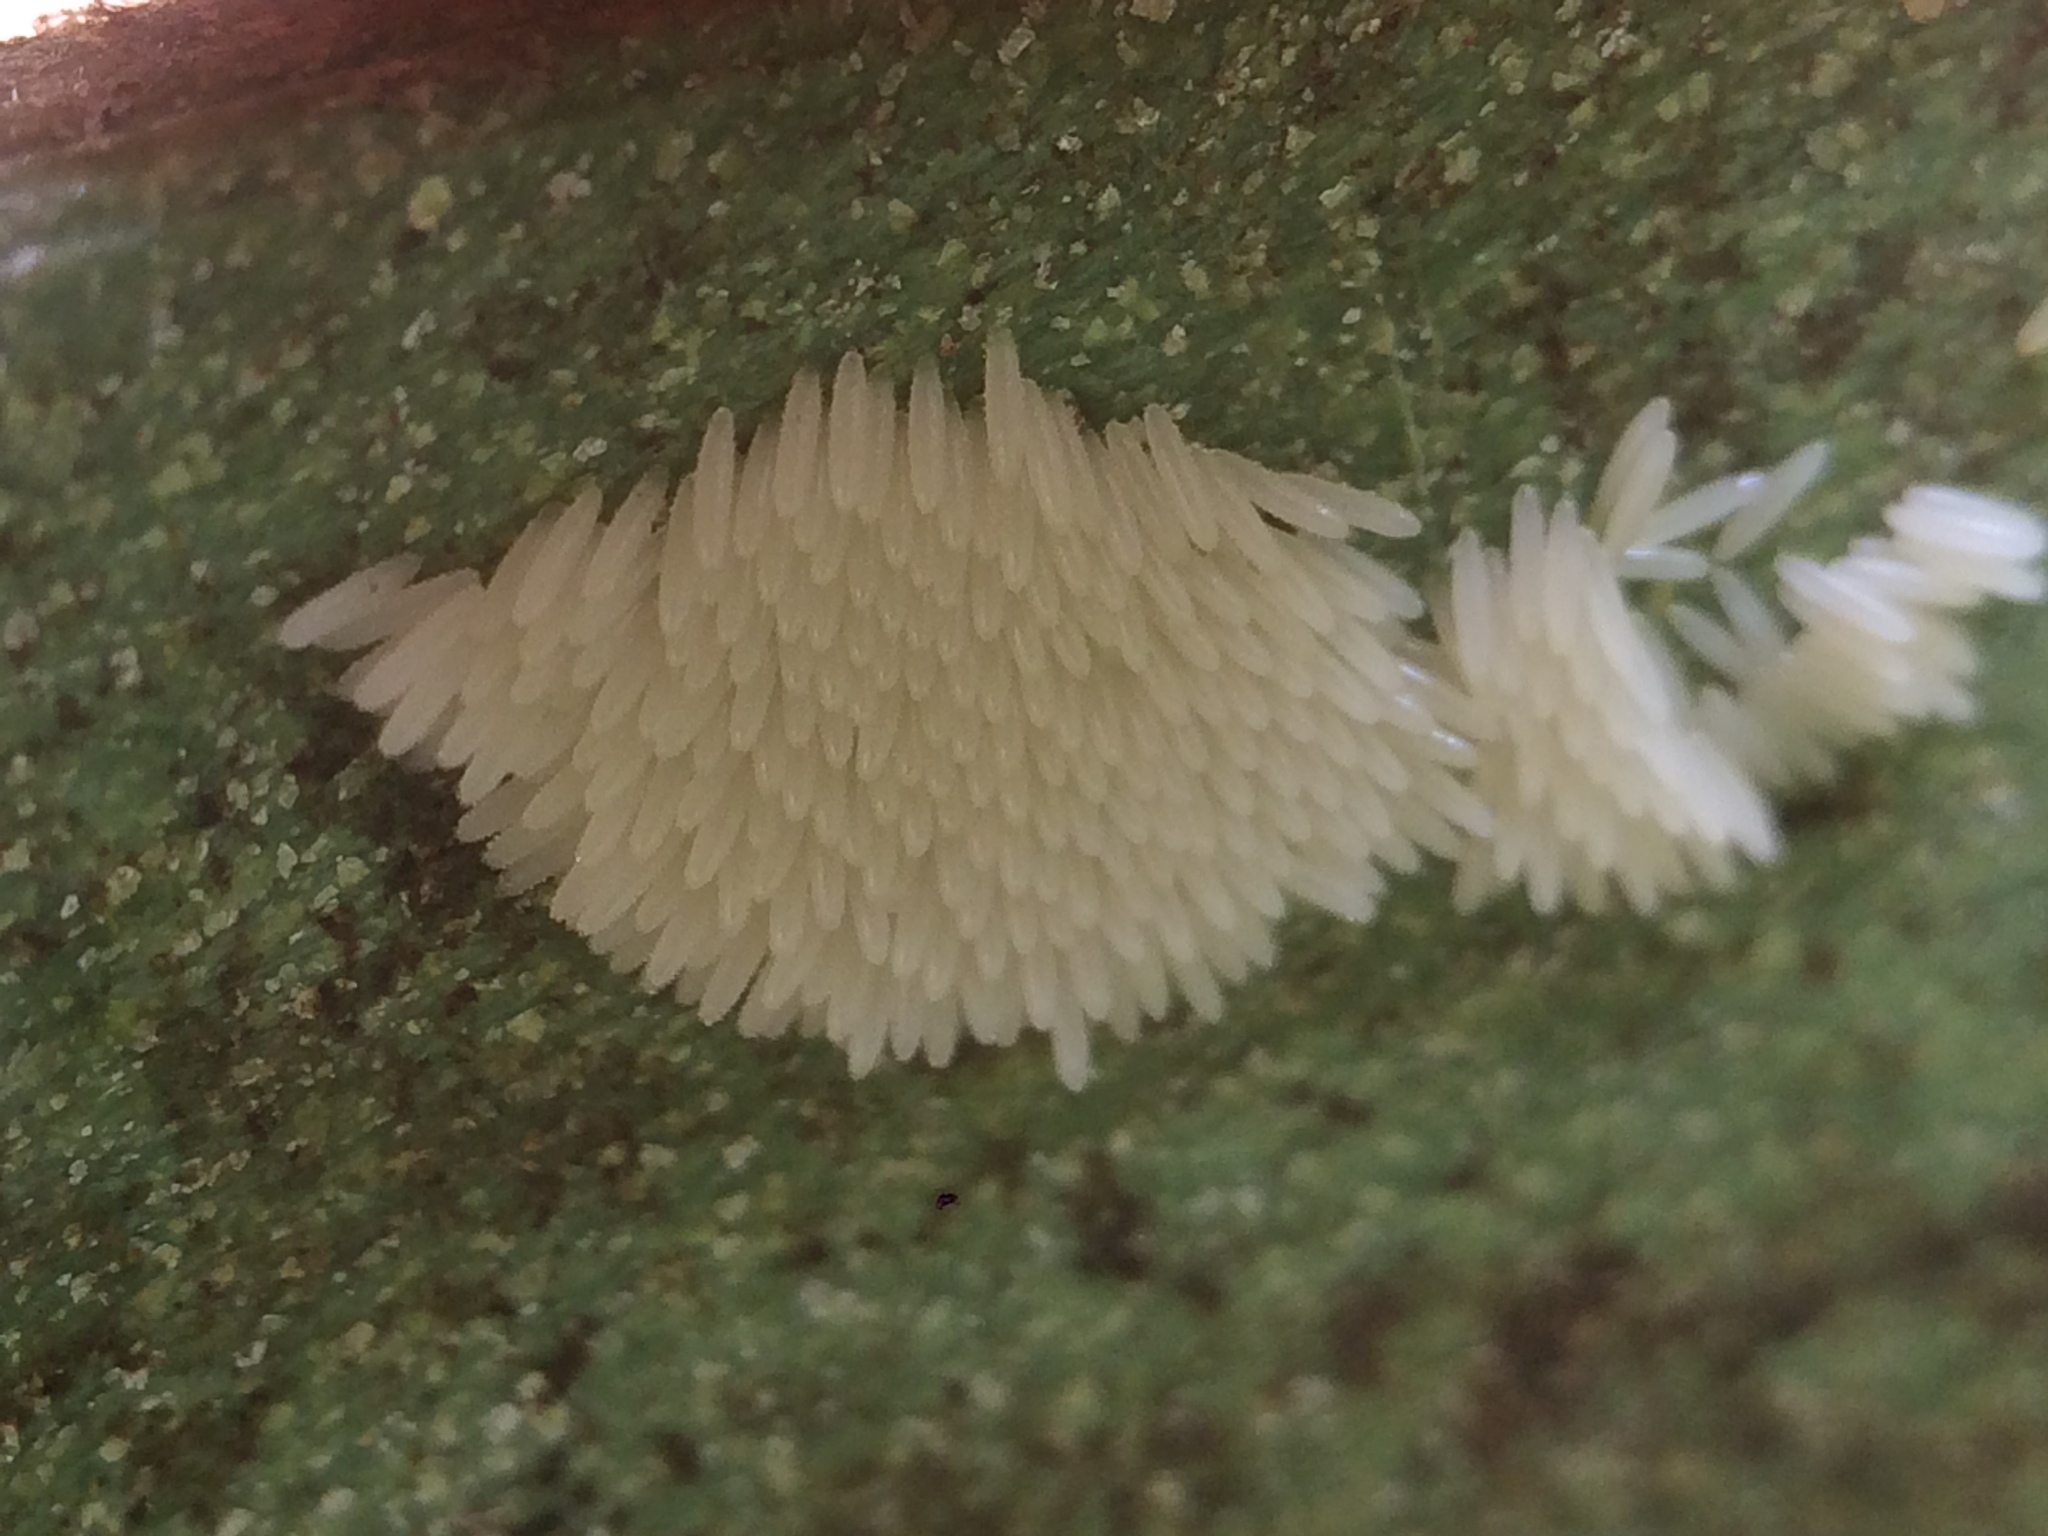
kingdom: Animalia
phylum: Arthropoda
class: Insecta
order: Diptera
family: Stratiomyidae
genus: Hermetia
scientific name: Hermetia illucens
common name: Black soldier fly
